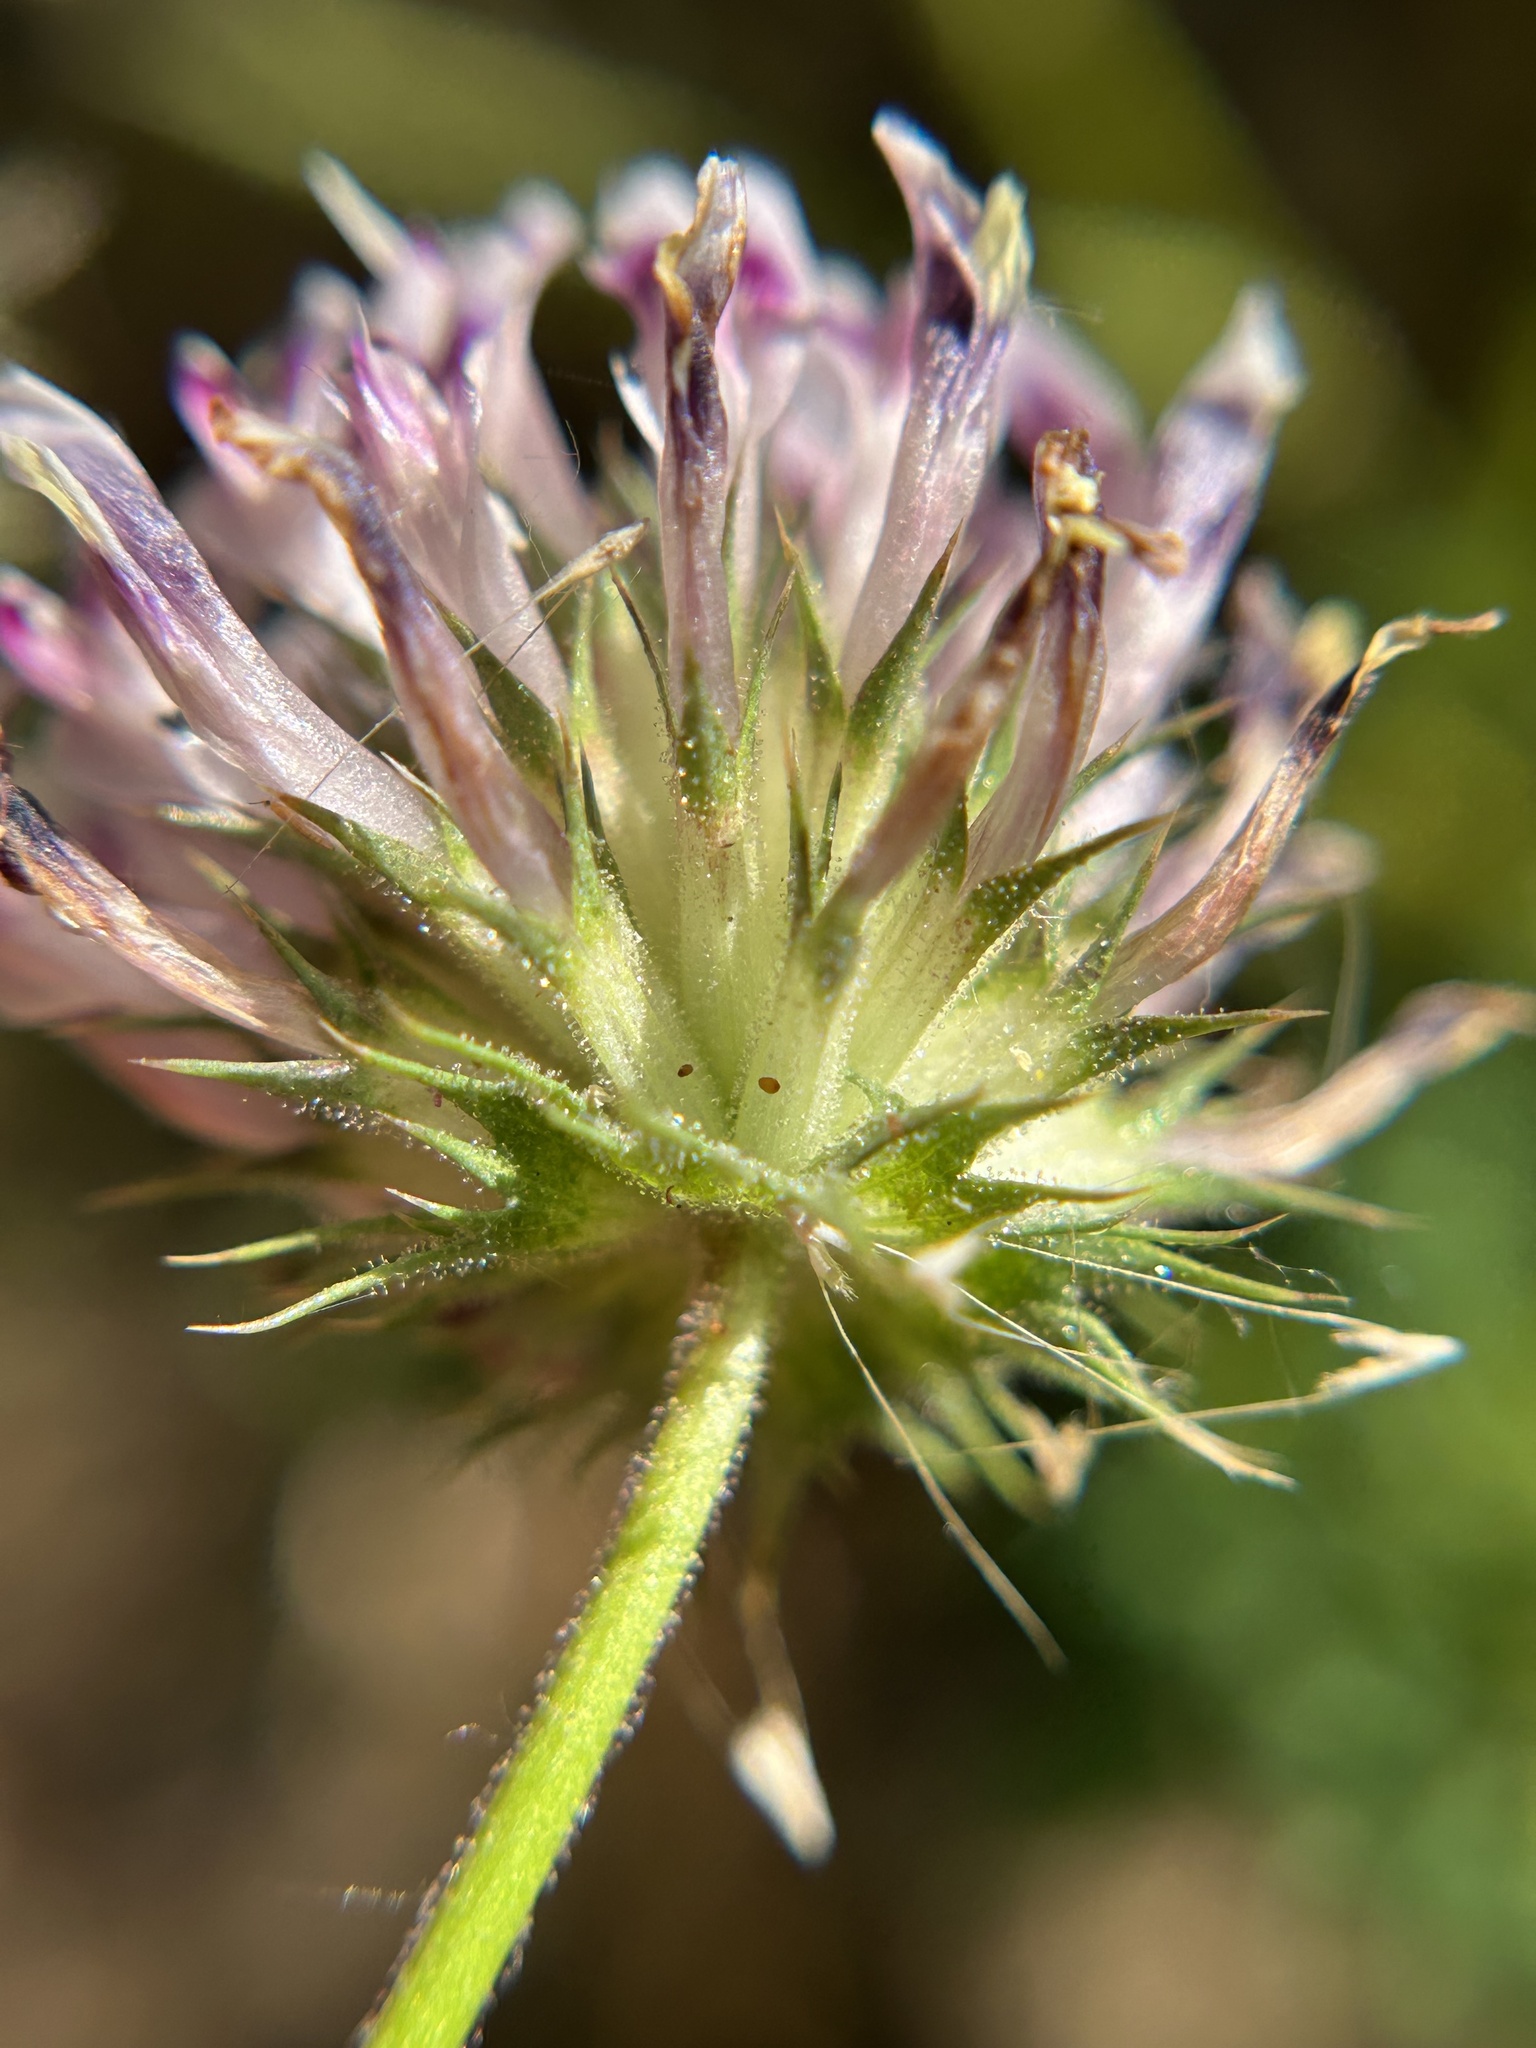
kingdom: Plantae
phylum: Tracheophyta
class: Magnoliopsida
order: Fabales
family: Fabaceae
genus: Trifolium
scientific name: Trifolium obtusiflorum
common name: Clammy clover
